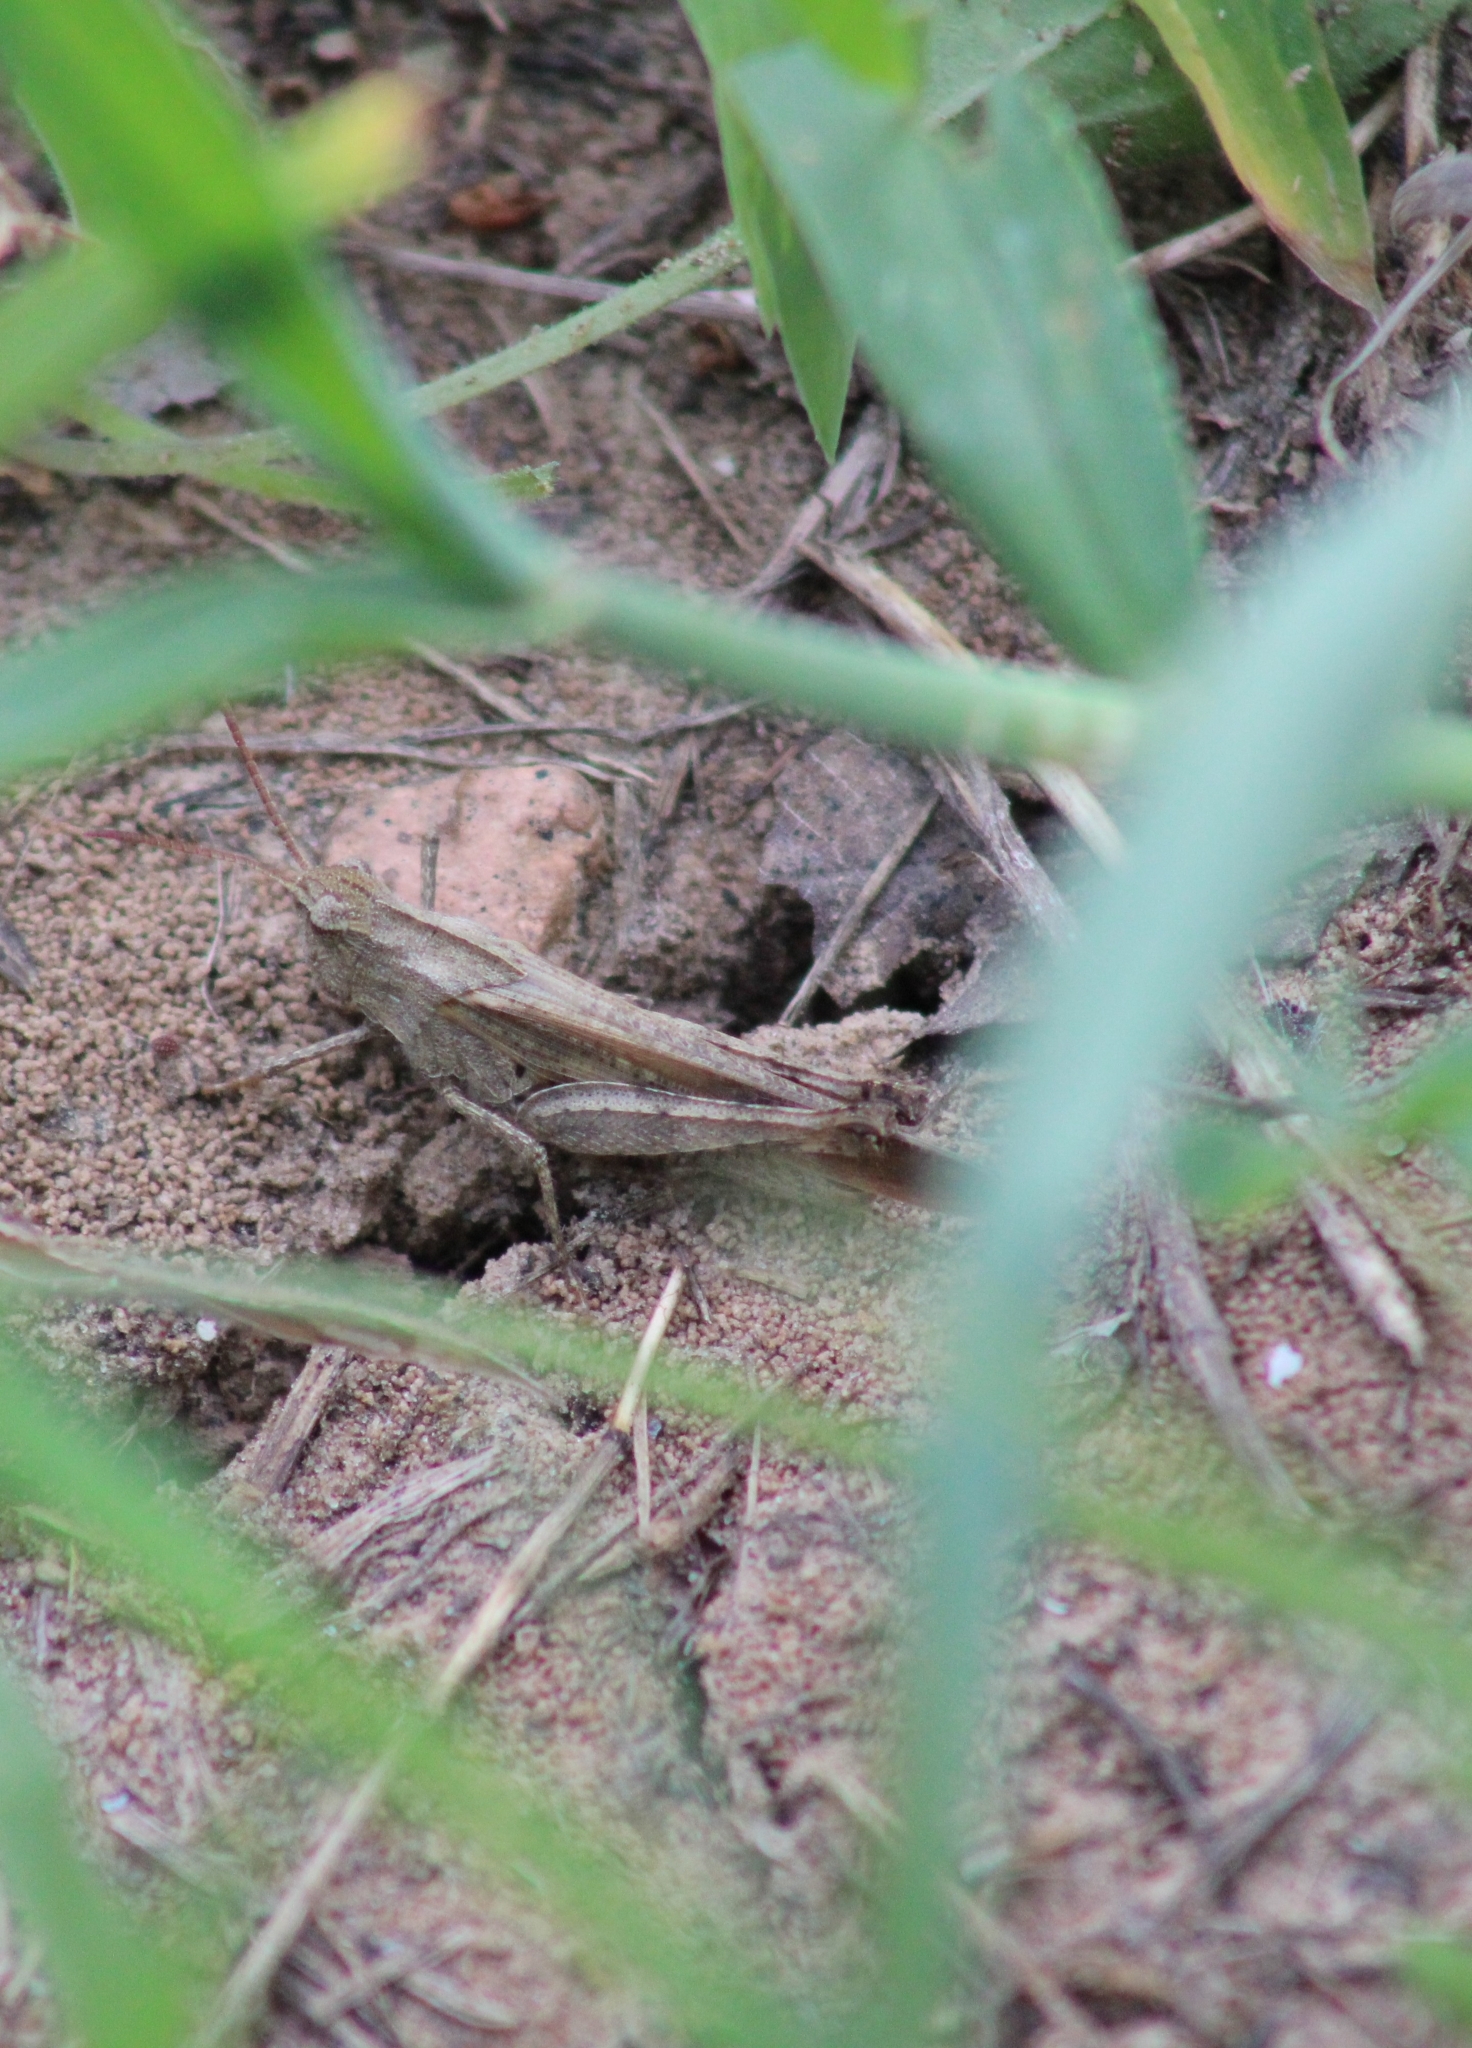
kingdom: Animalia
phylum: Arthropoda
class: Insecta
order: Orthoptera
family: Acrididae
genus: Chortophaga
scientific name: Chortophaga viridifasciata
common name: Green-striped grasshopper
